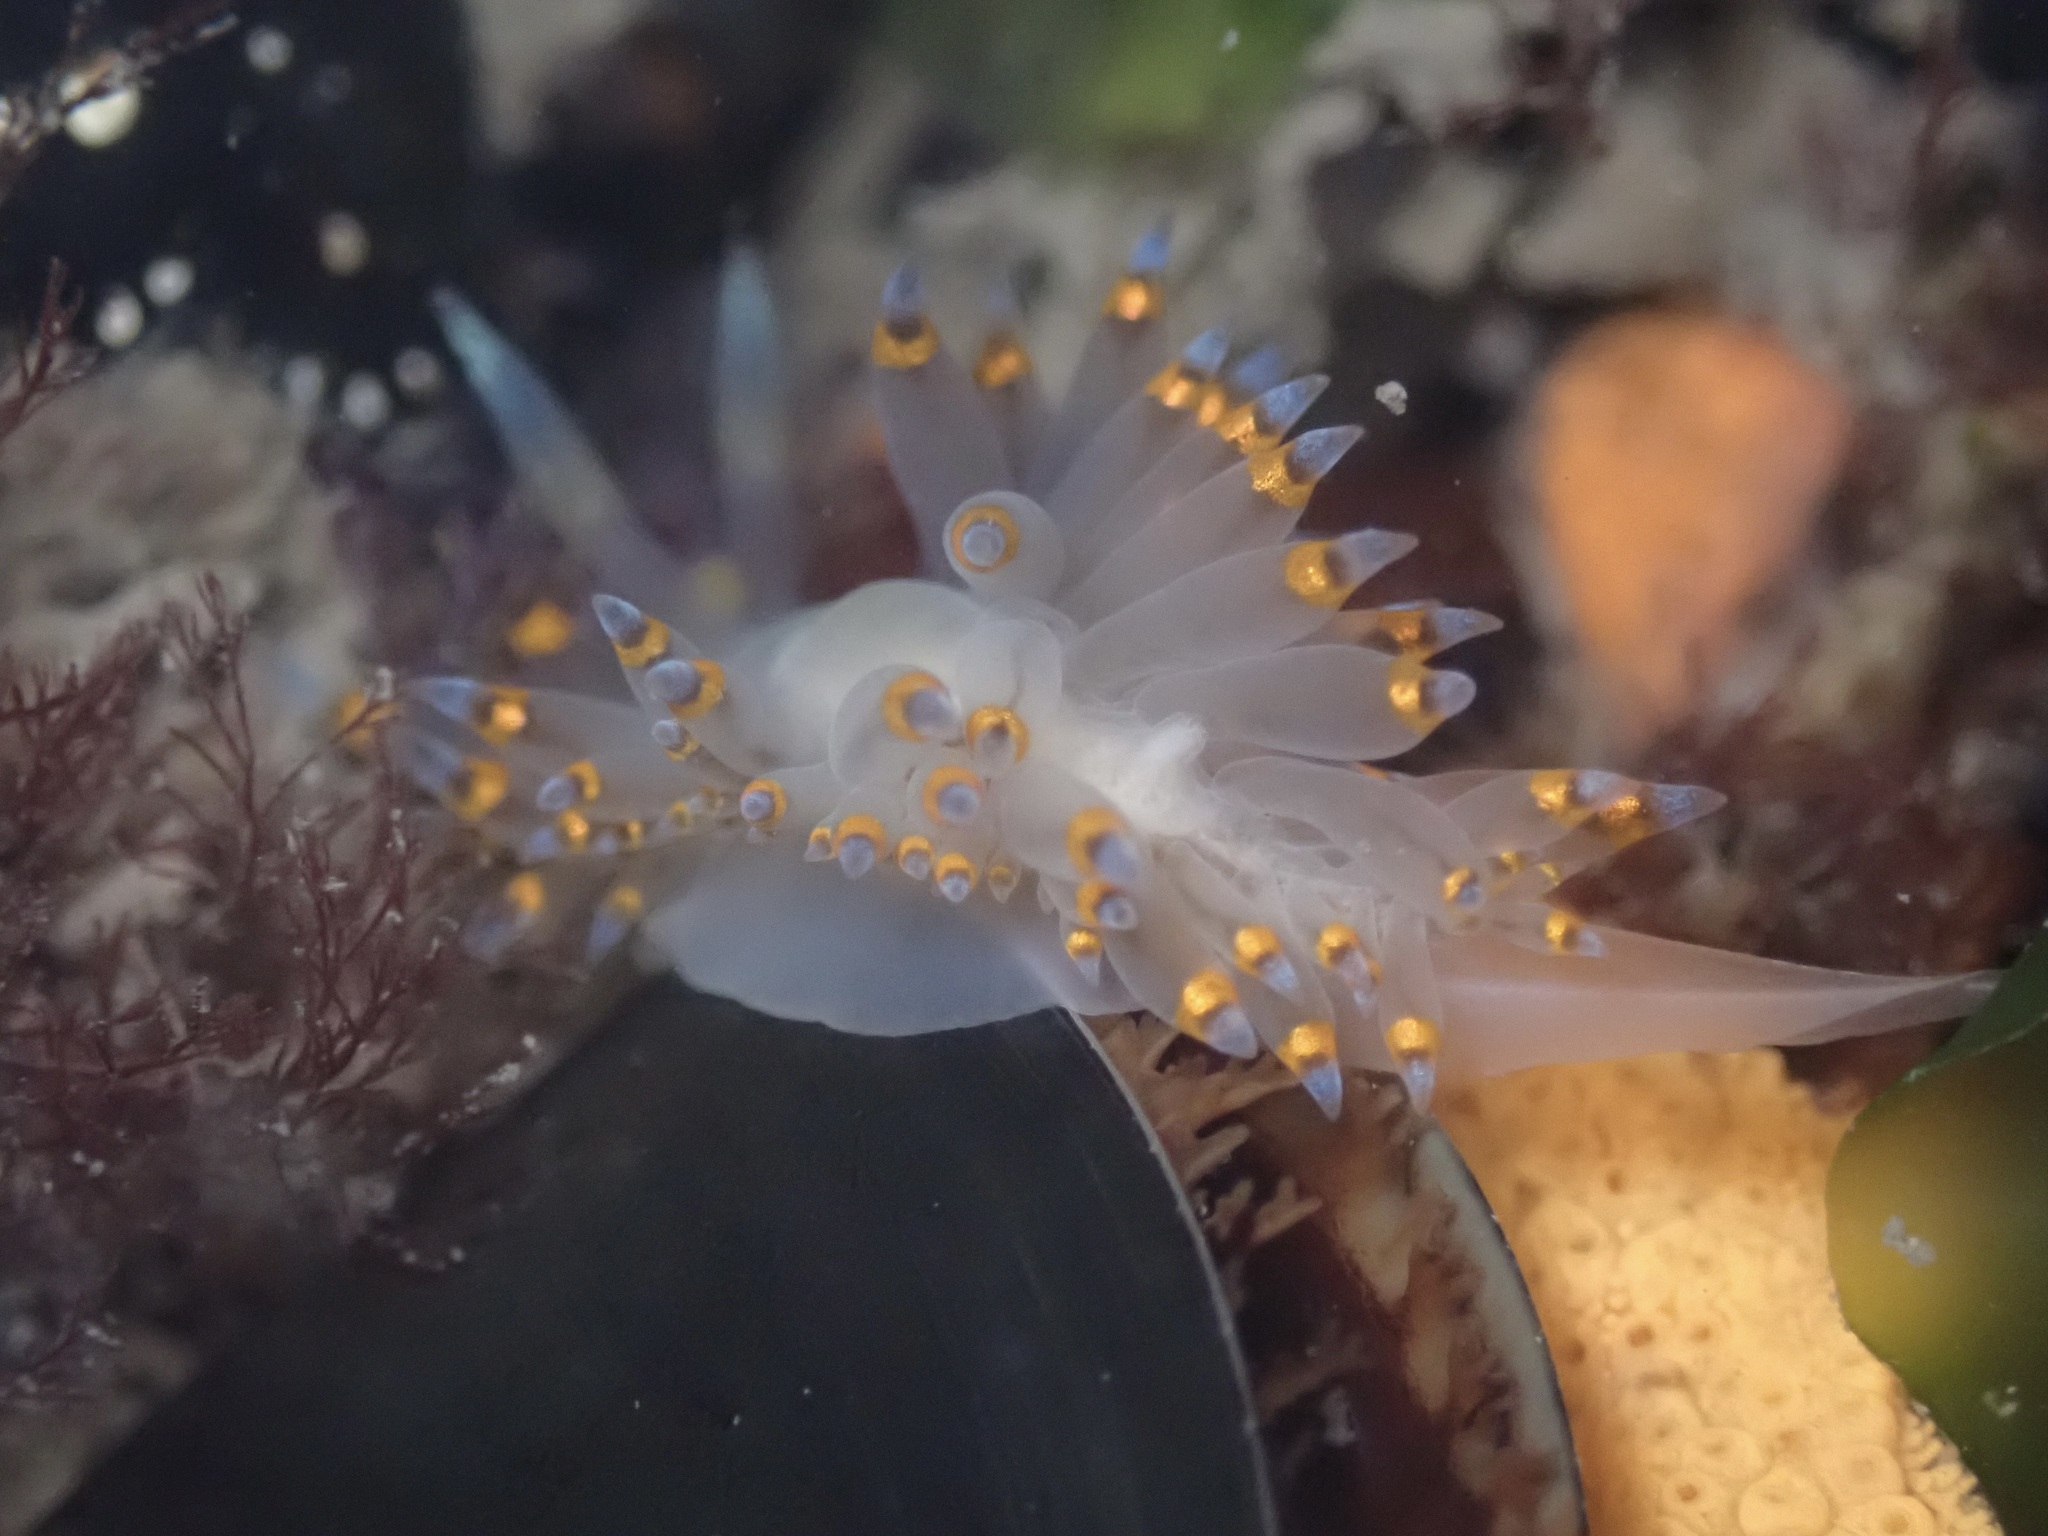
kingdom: Animalia
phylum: Mollusca
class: Gastropoda
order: Nudibranchia
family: Janolidae
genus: Antiopella
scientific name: Antiopella barbarensis
